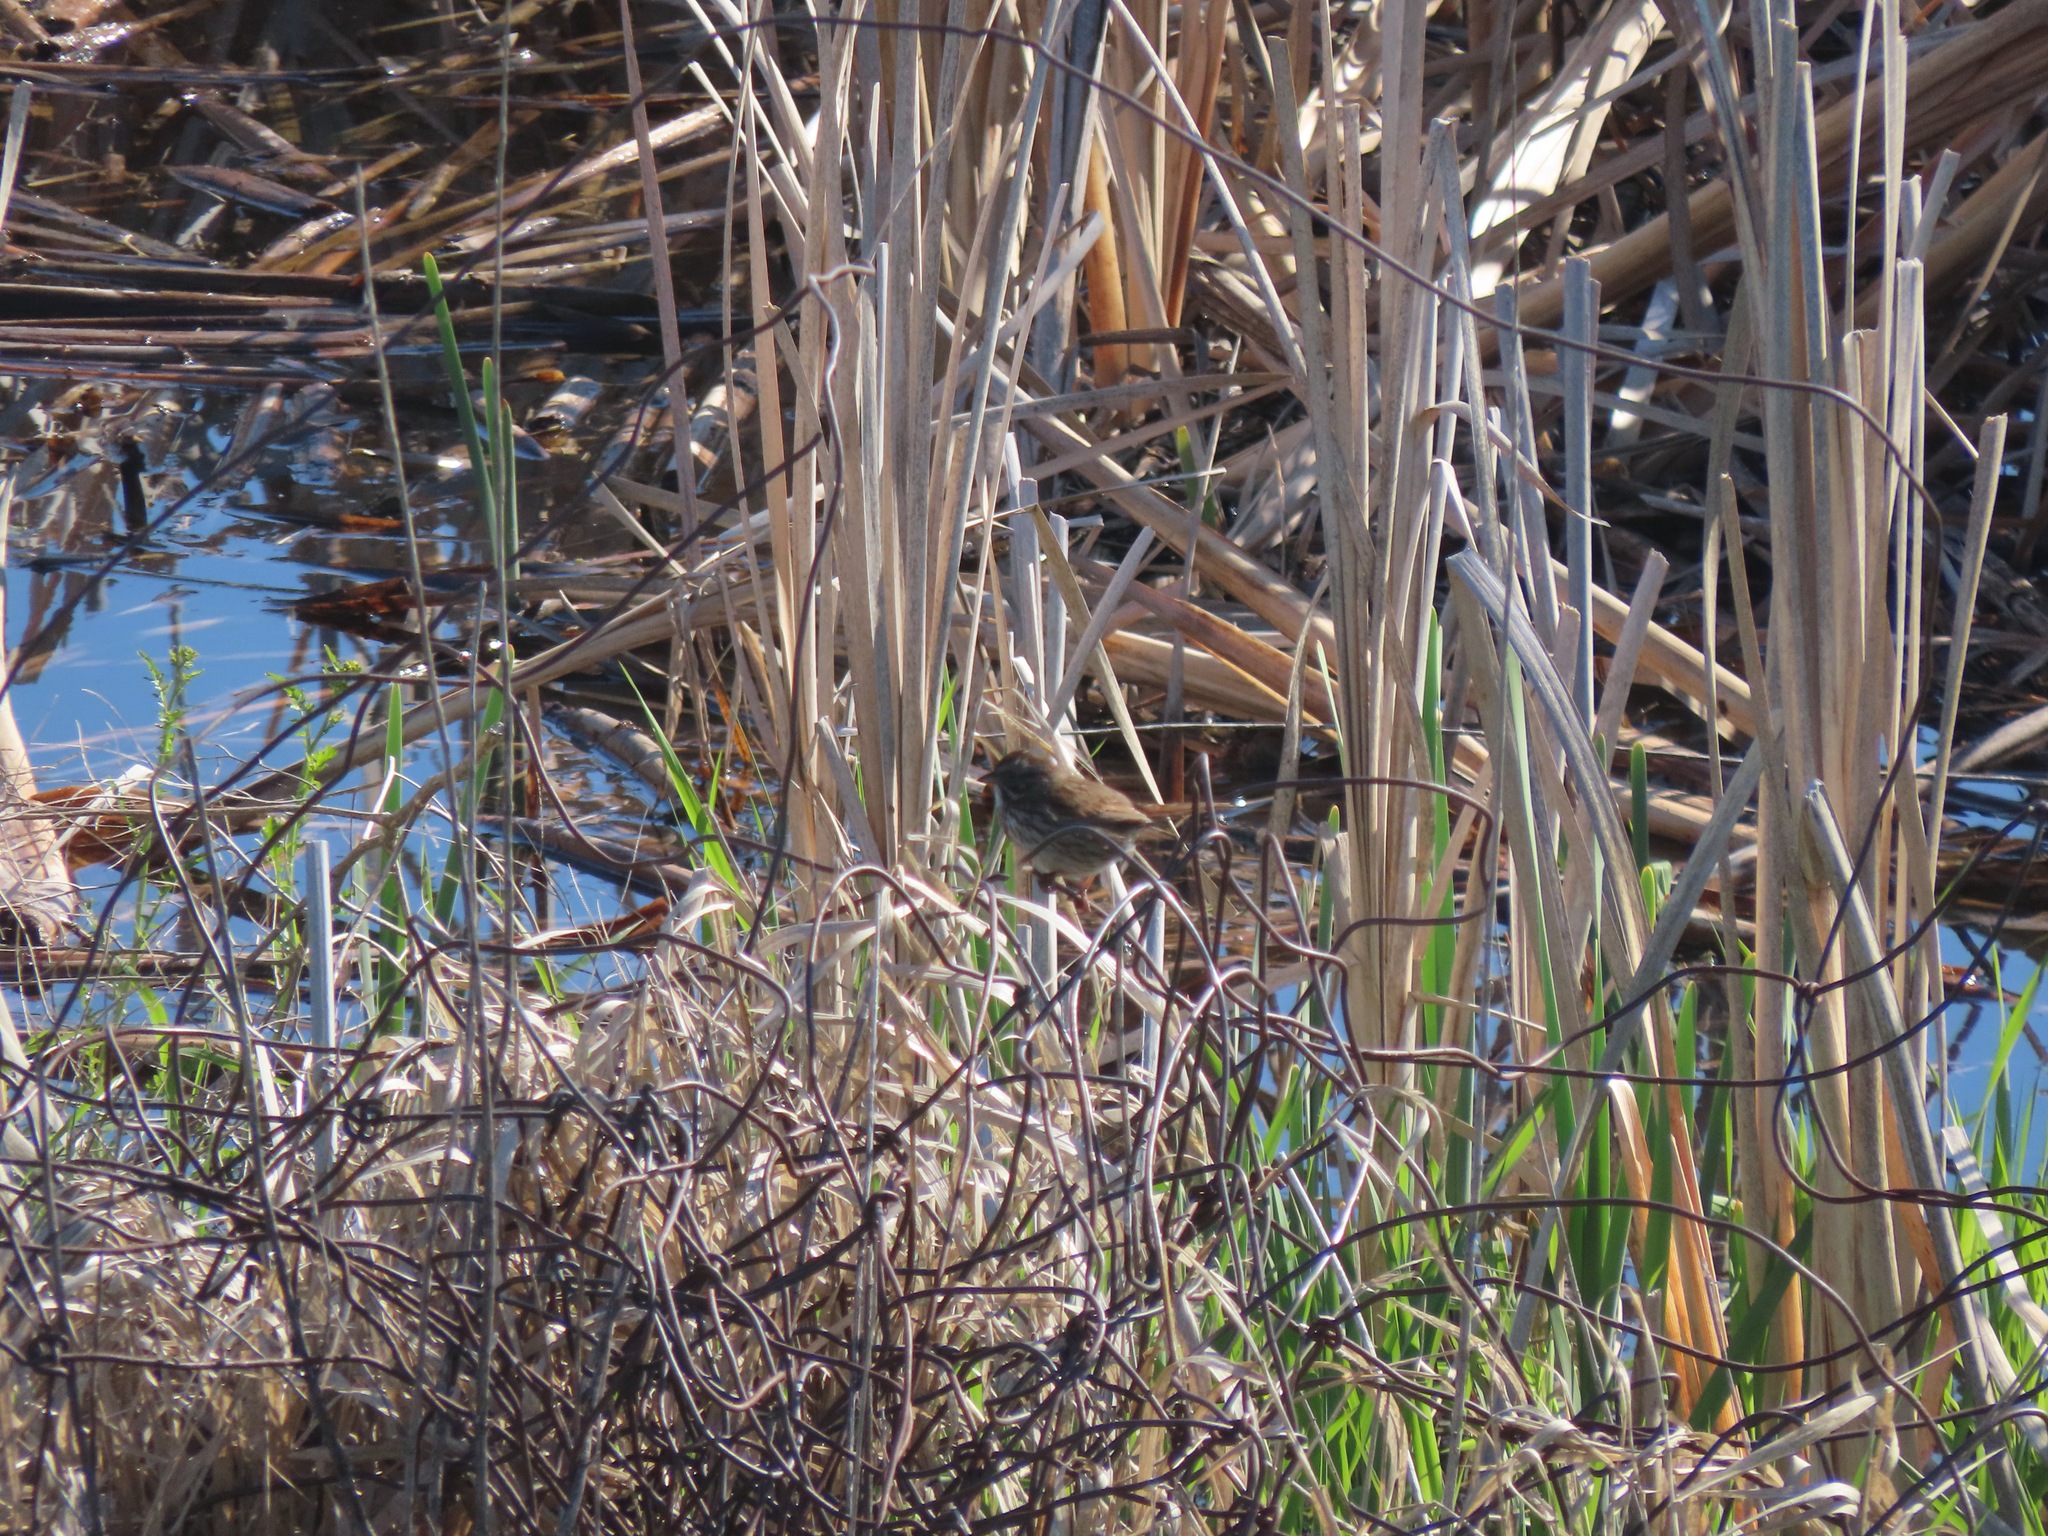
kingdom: Animalia
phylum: Chordata
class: Aves
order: Passeriformes
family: Passerellidae
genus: Melospiza
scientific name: Melospiza melodia
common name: Song sparrow
